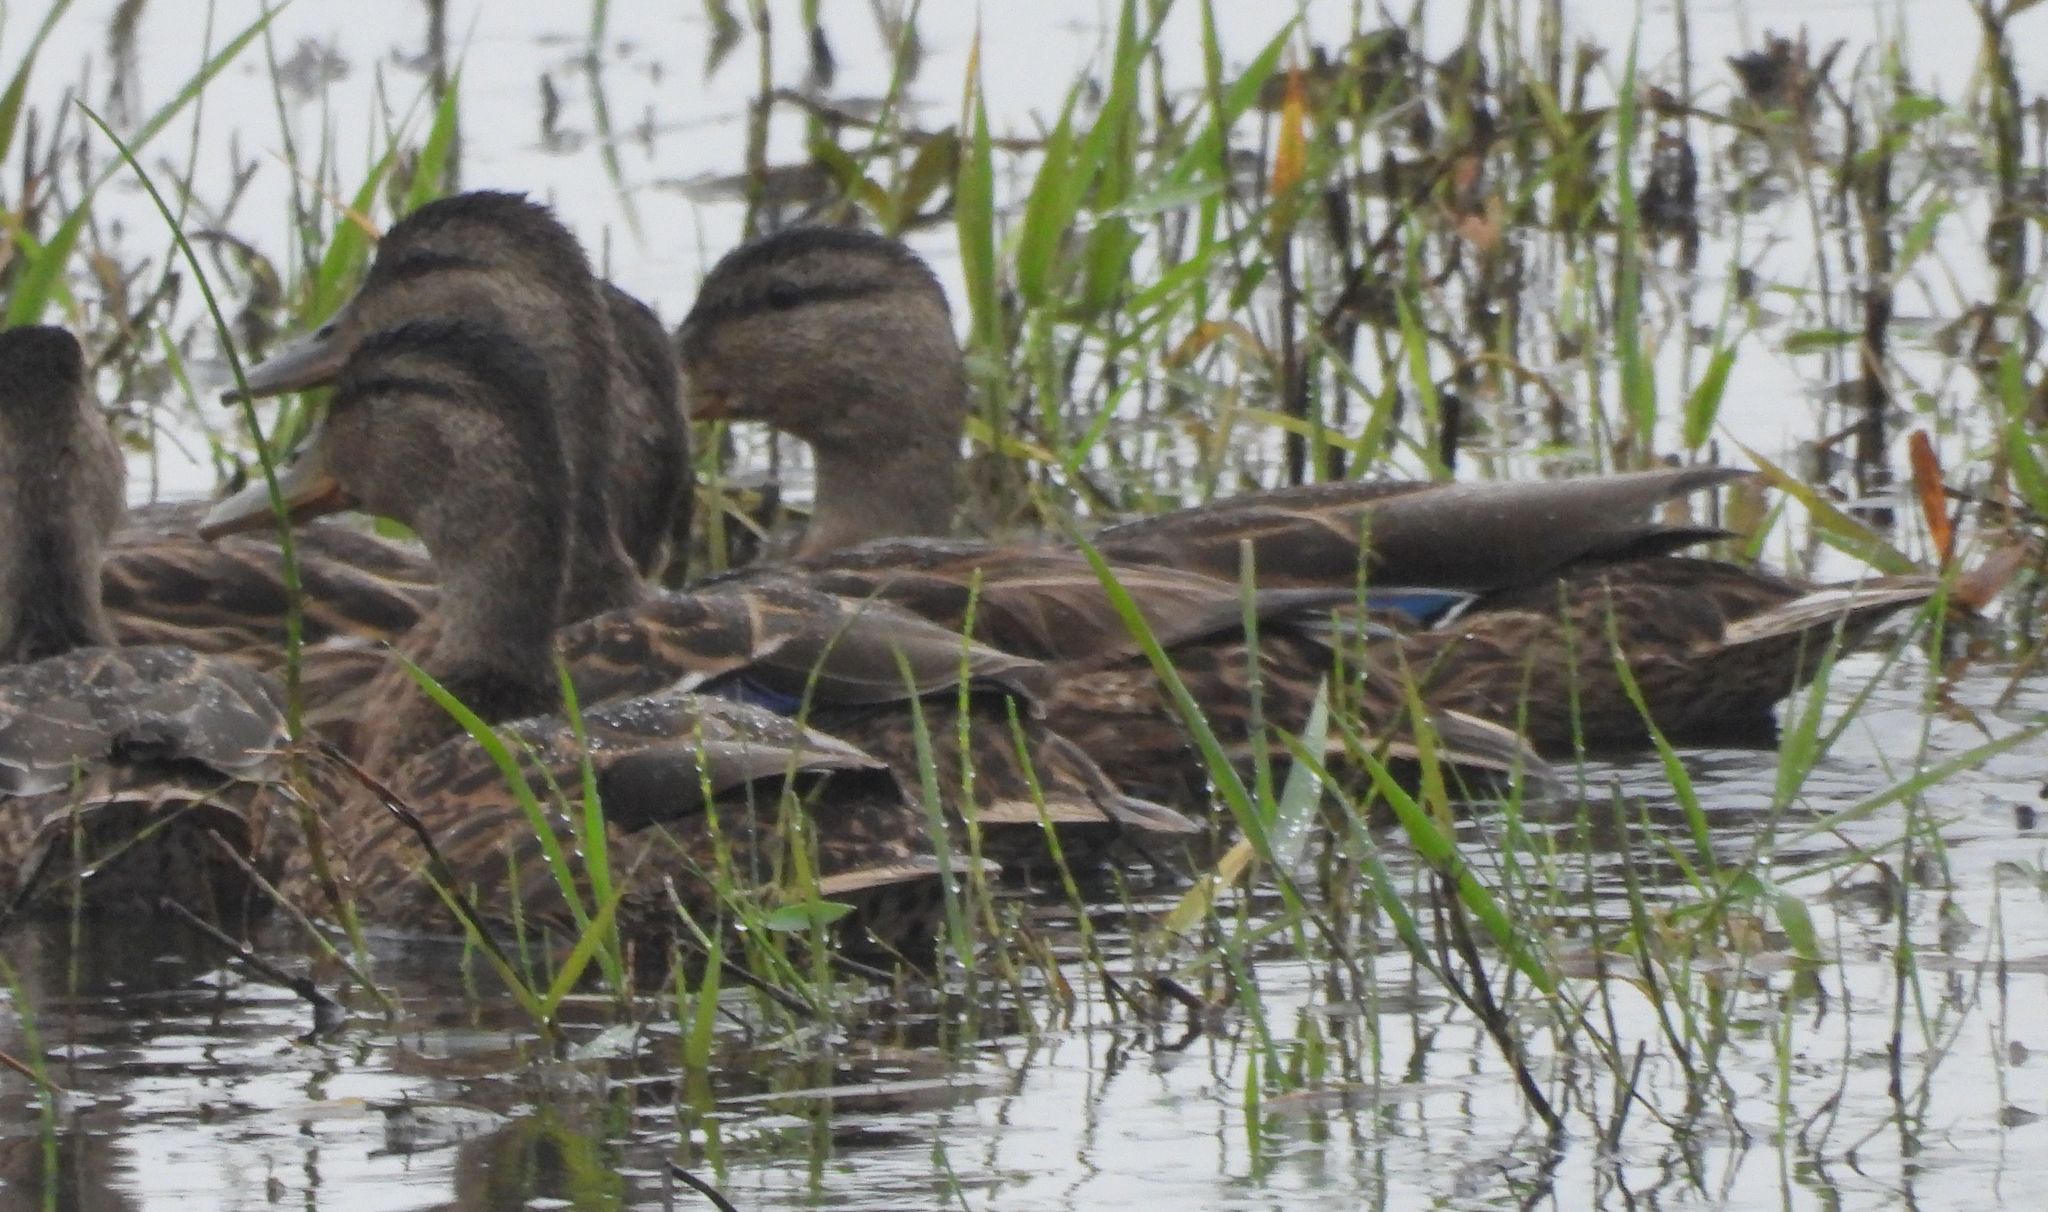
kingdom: Animalia
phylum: Chordata
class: Aves
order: Anseriformes
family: Anatidae
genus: Anas
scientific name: Anas platyrhynchos
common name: Mallard
